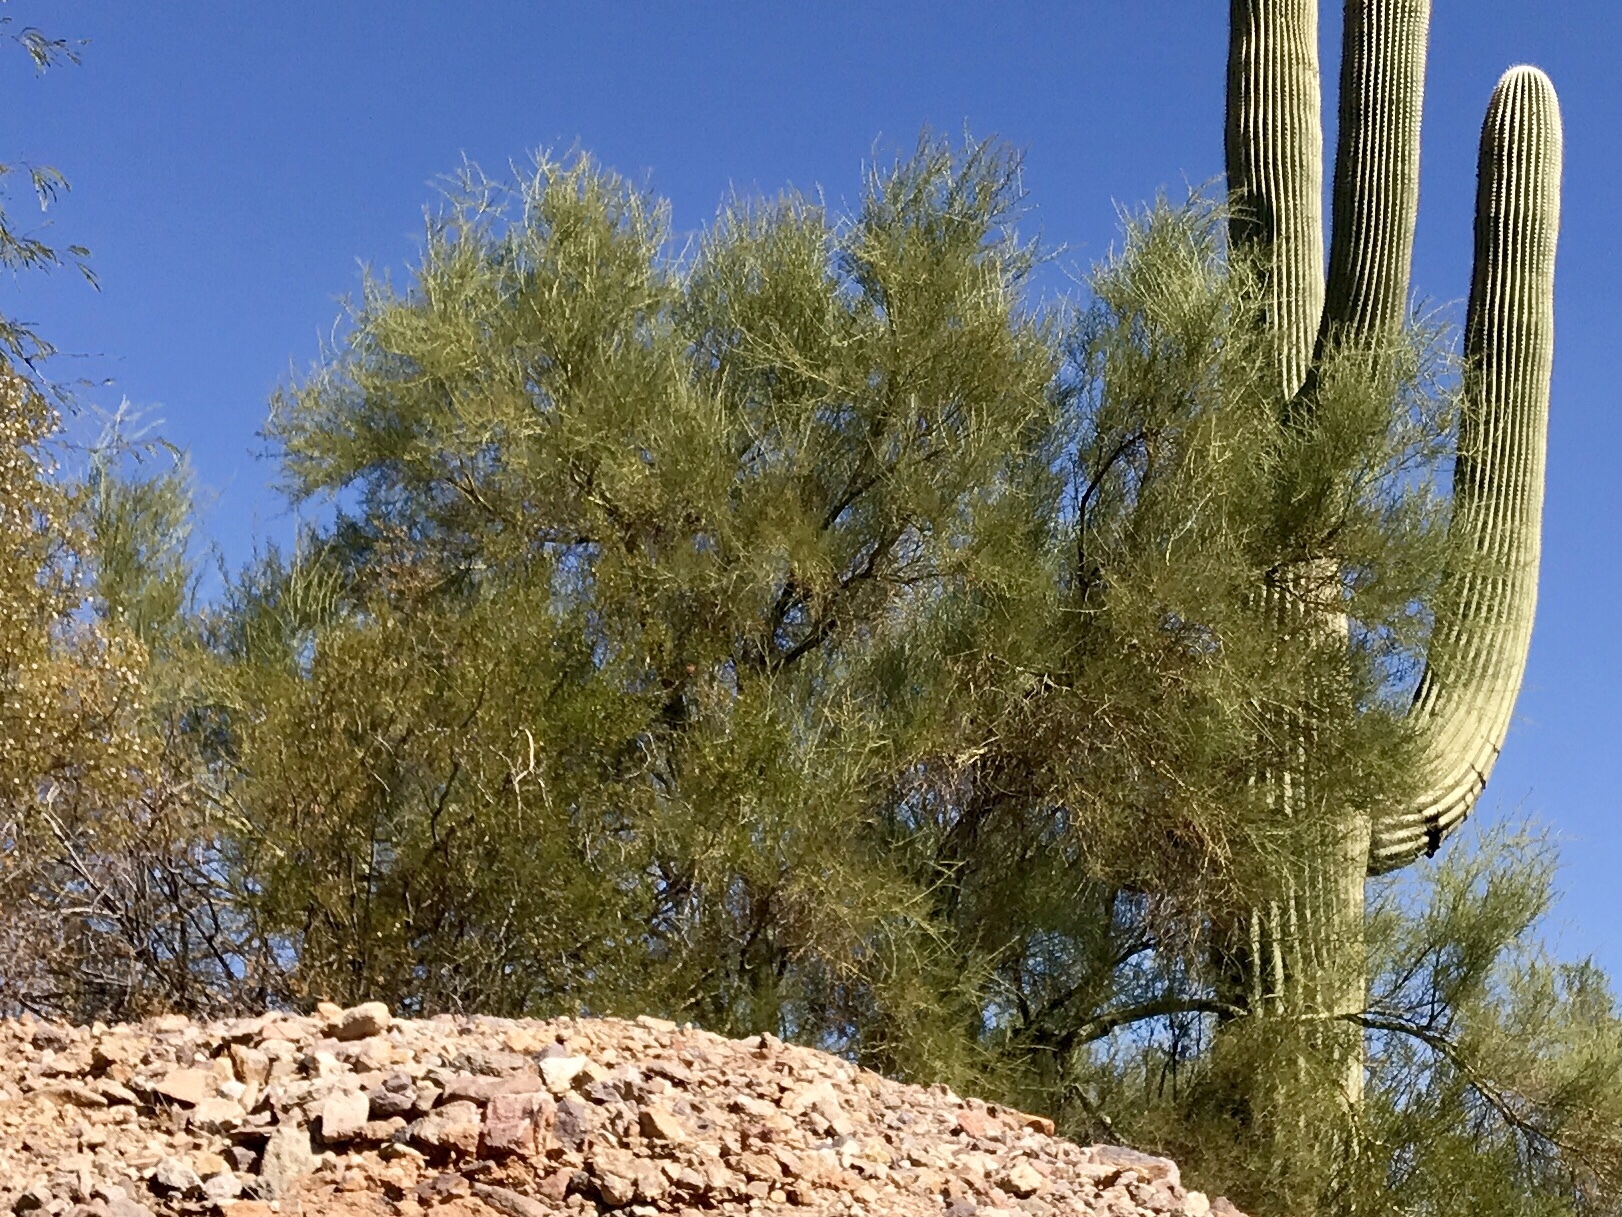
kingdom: Plantae
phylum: Tracheophyta
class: Magnoliopsida
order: Fabales
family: Fabaceae
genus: Parkinsonia
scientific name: Parkinsonia microphylla
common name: Yellow paloverde
